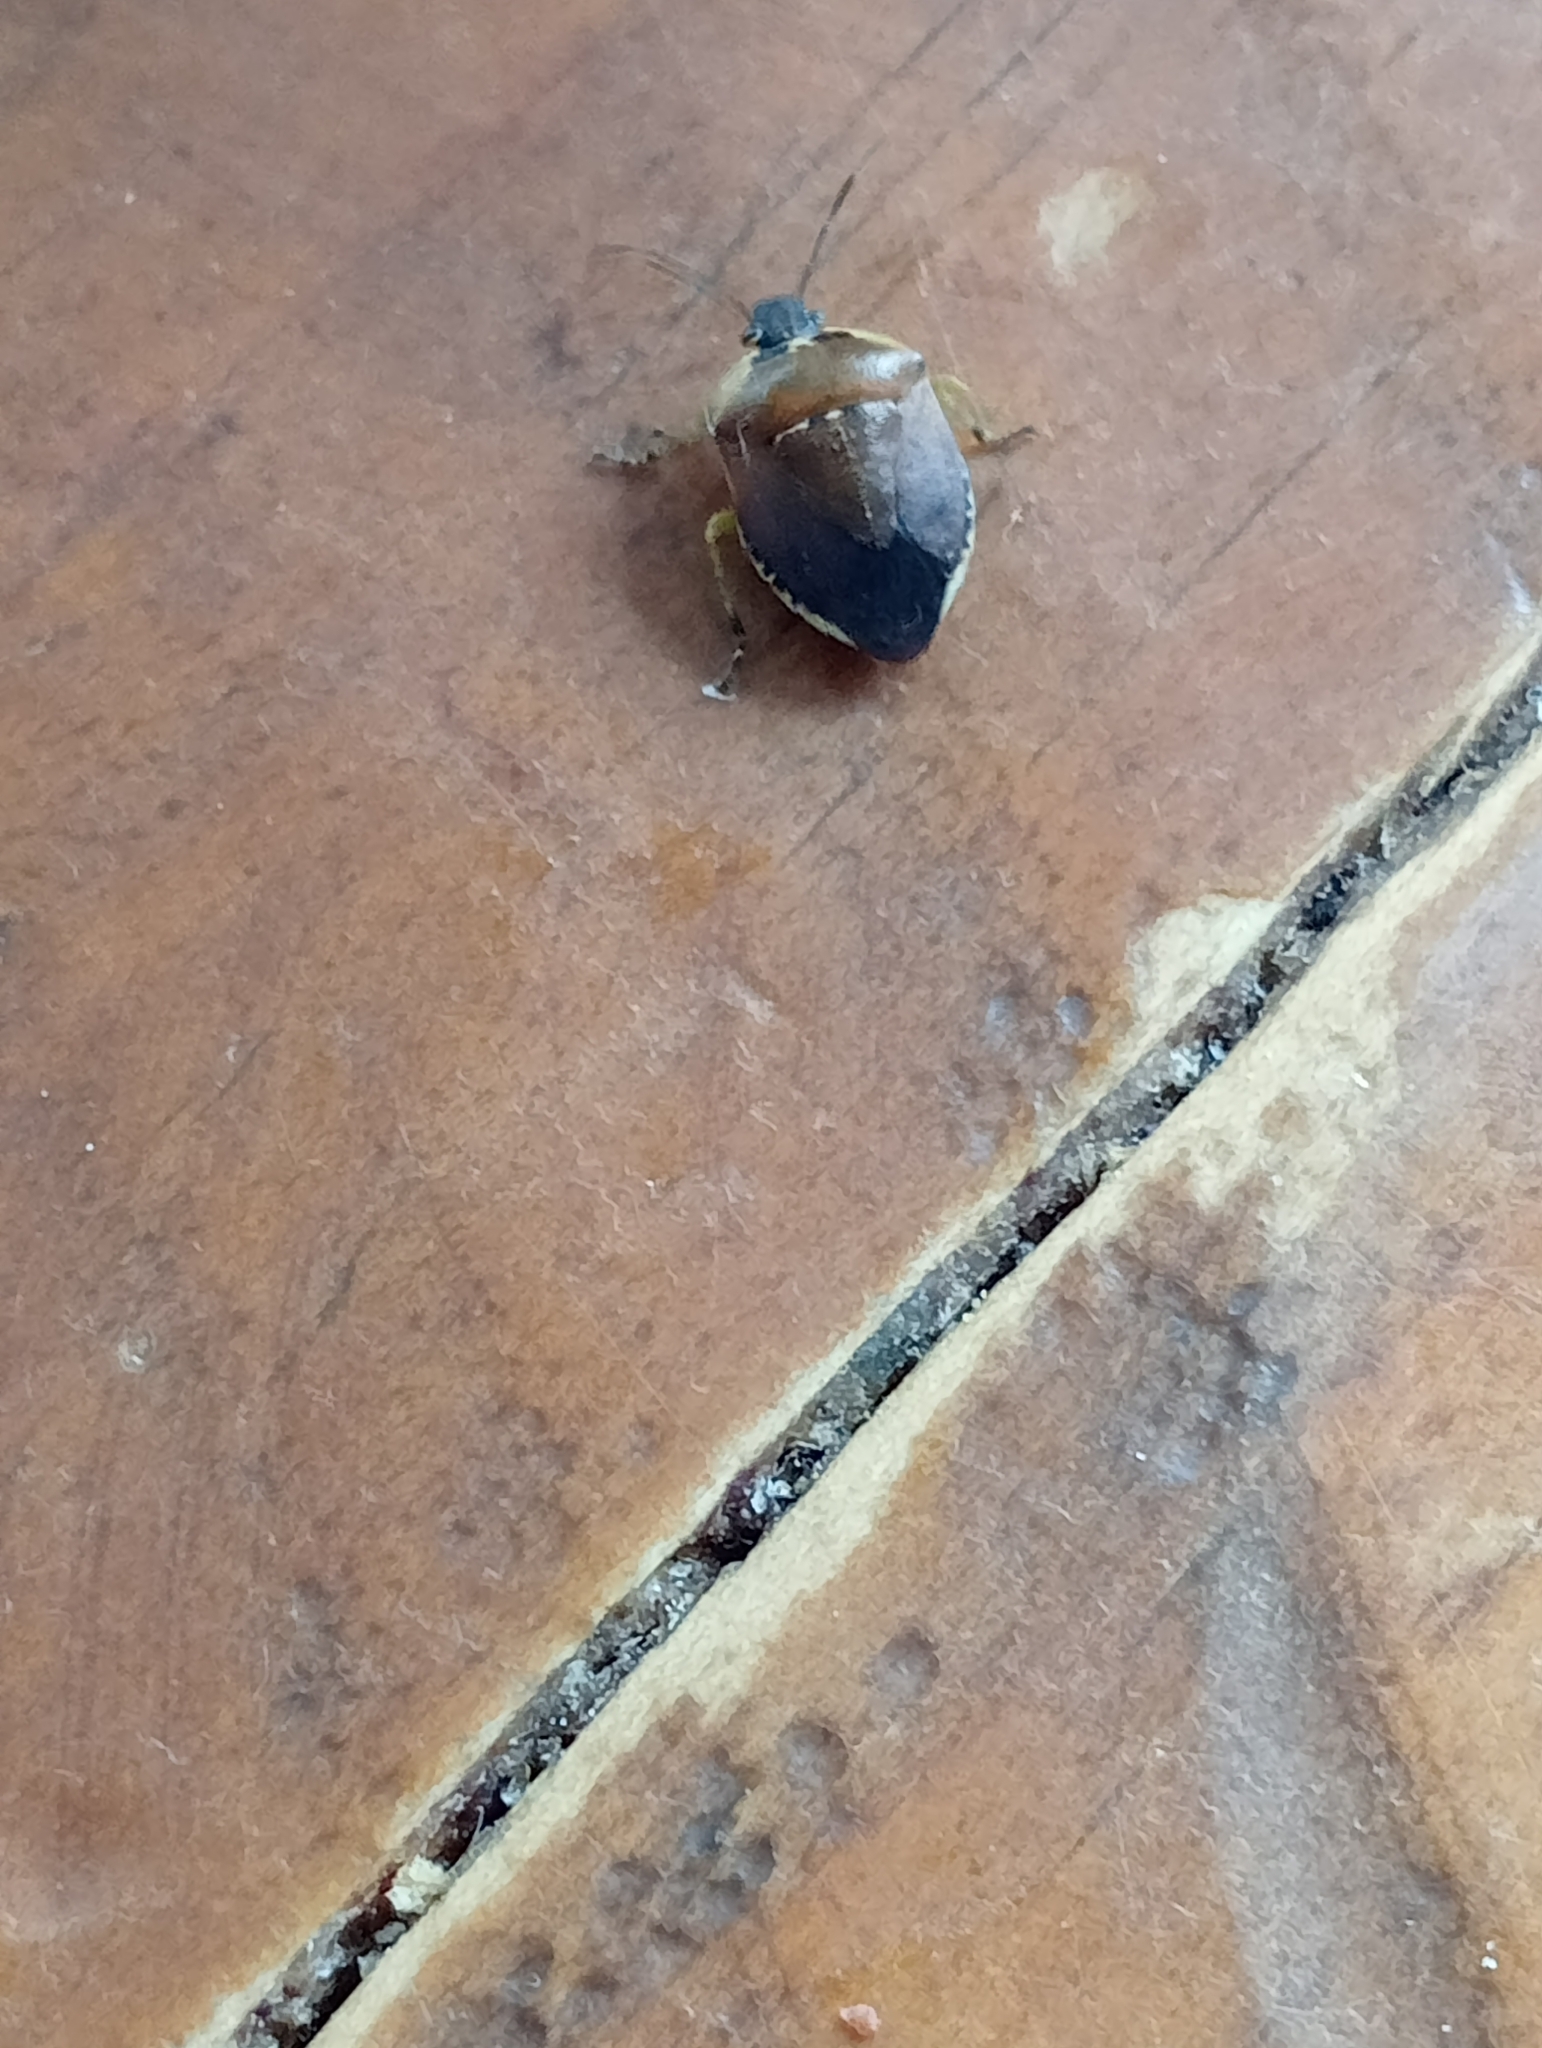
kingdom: Animalia
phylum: Arthropoda
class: Insecta
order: Hemiptera
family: Pentatomidae
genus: Monteithiella
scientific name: Monteithiella
